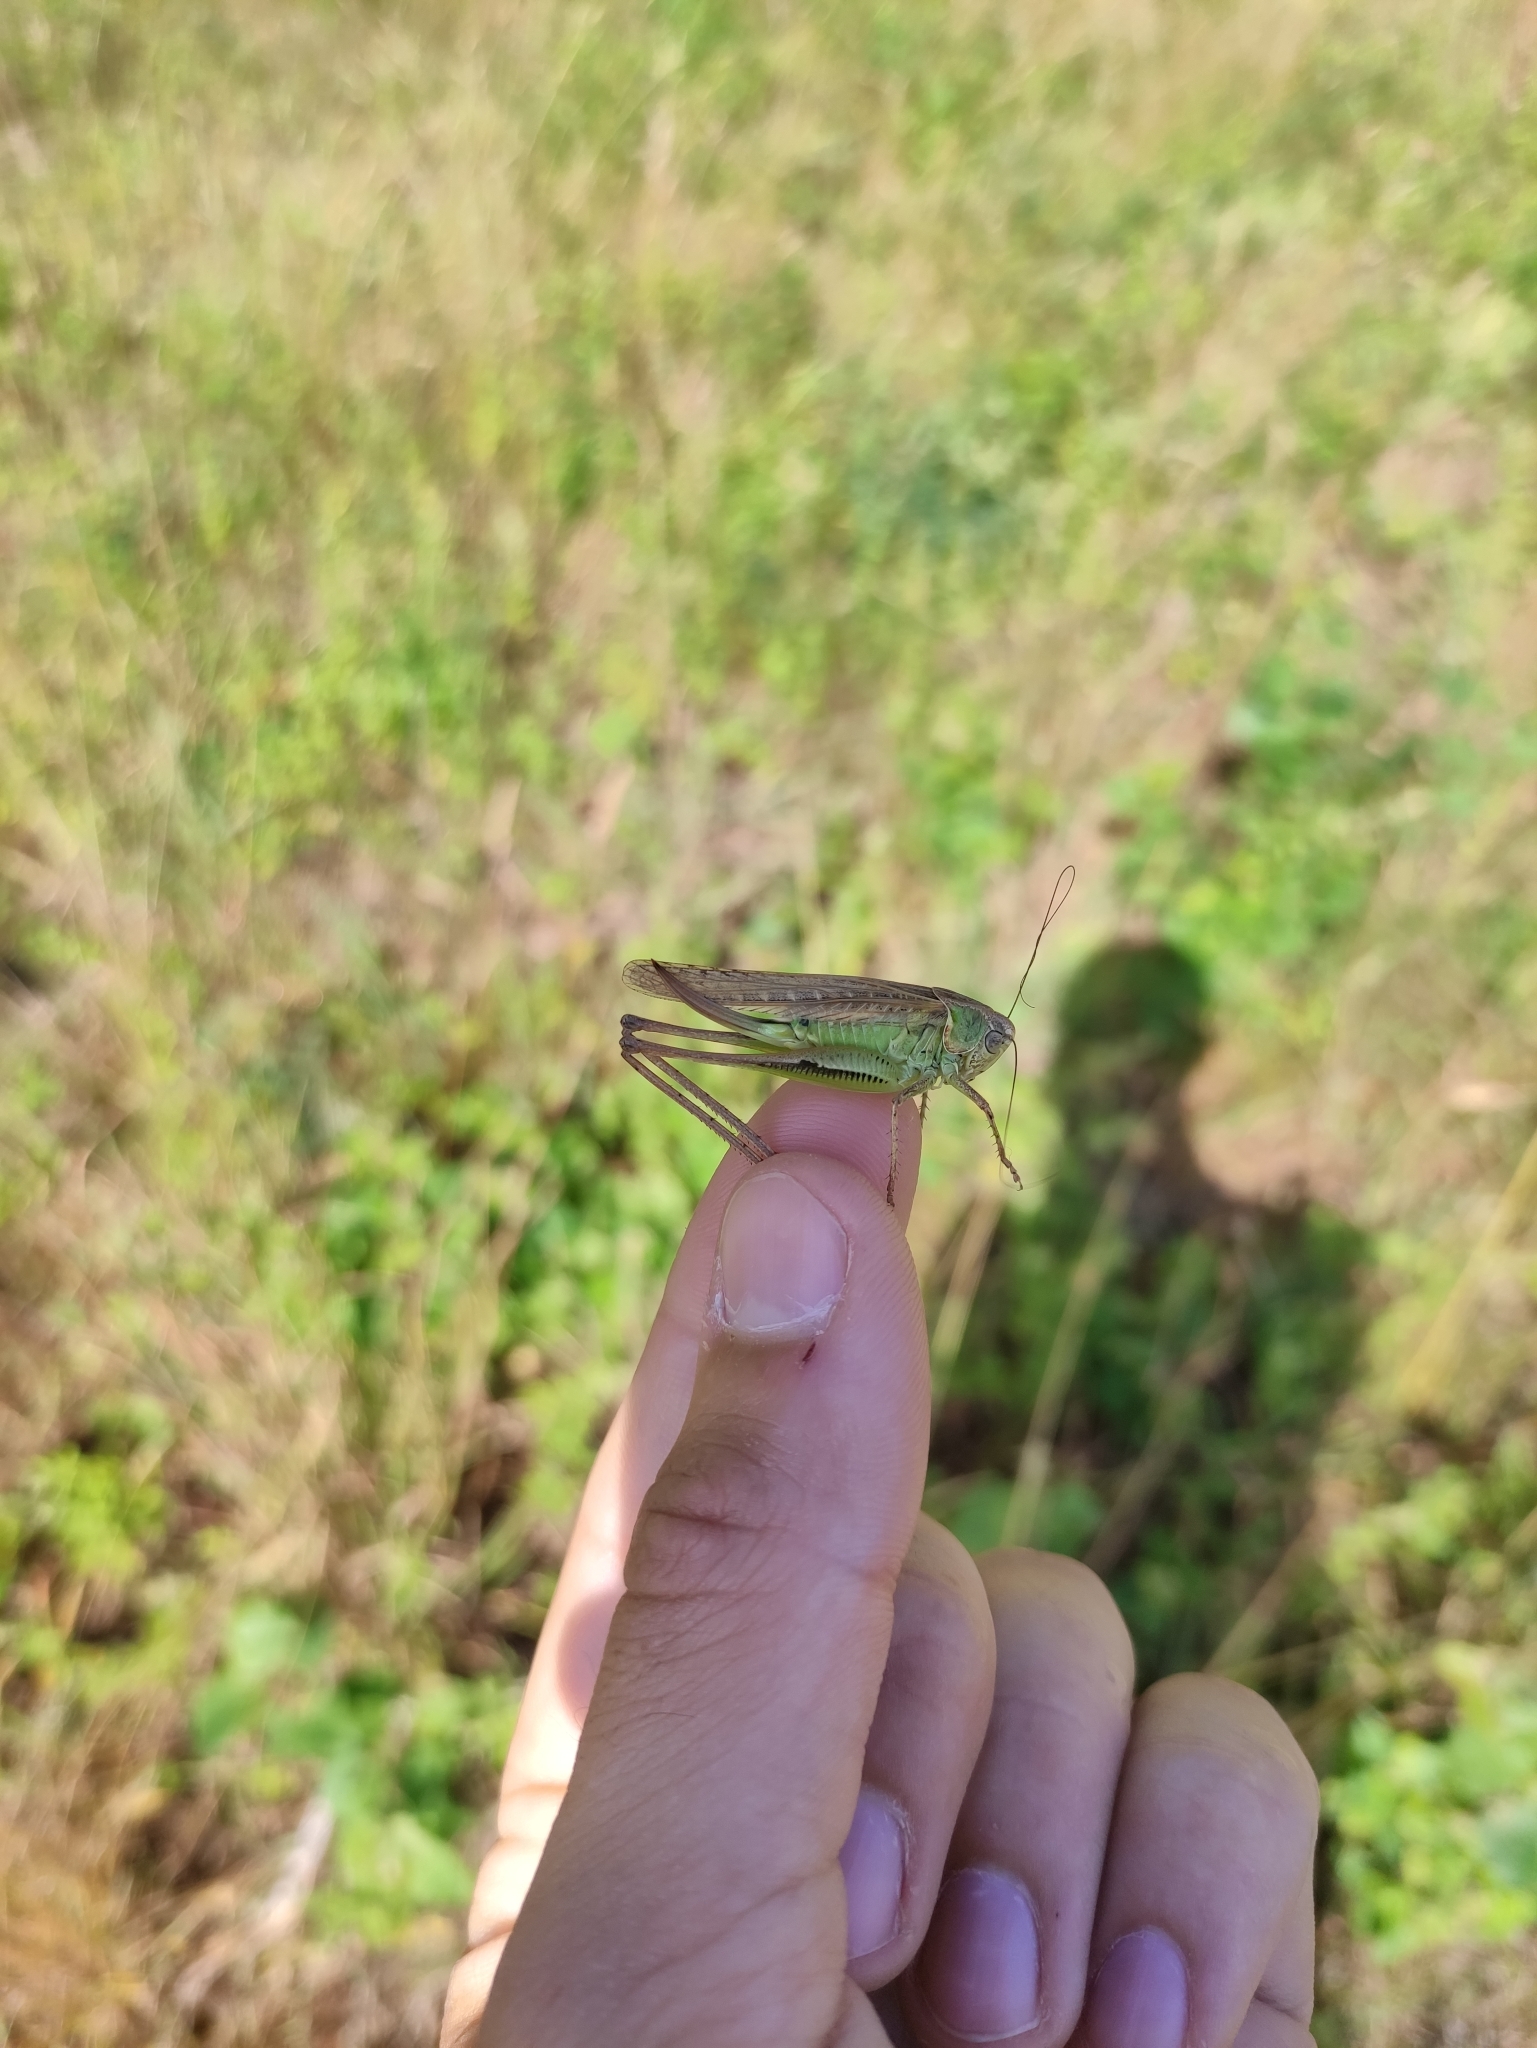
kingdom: Animalia
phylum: Arthropoda
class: Insecta
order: Orthoptera
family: Tettigoniidae
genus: Platycleis
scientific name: Platycleis affinis
